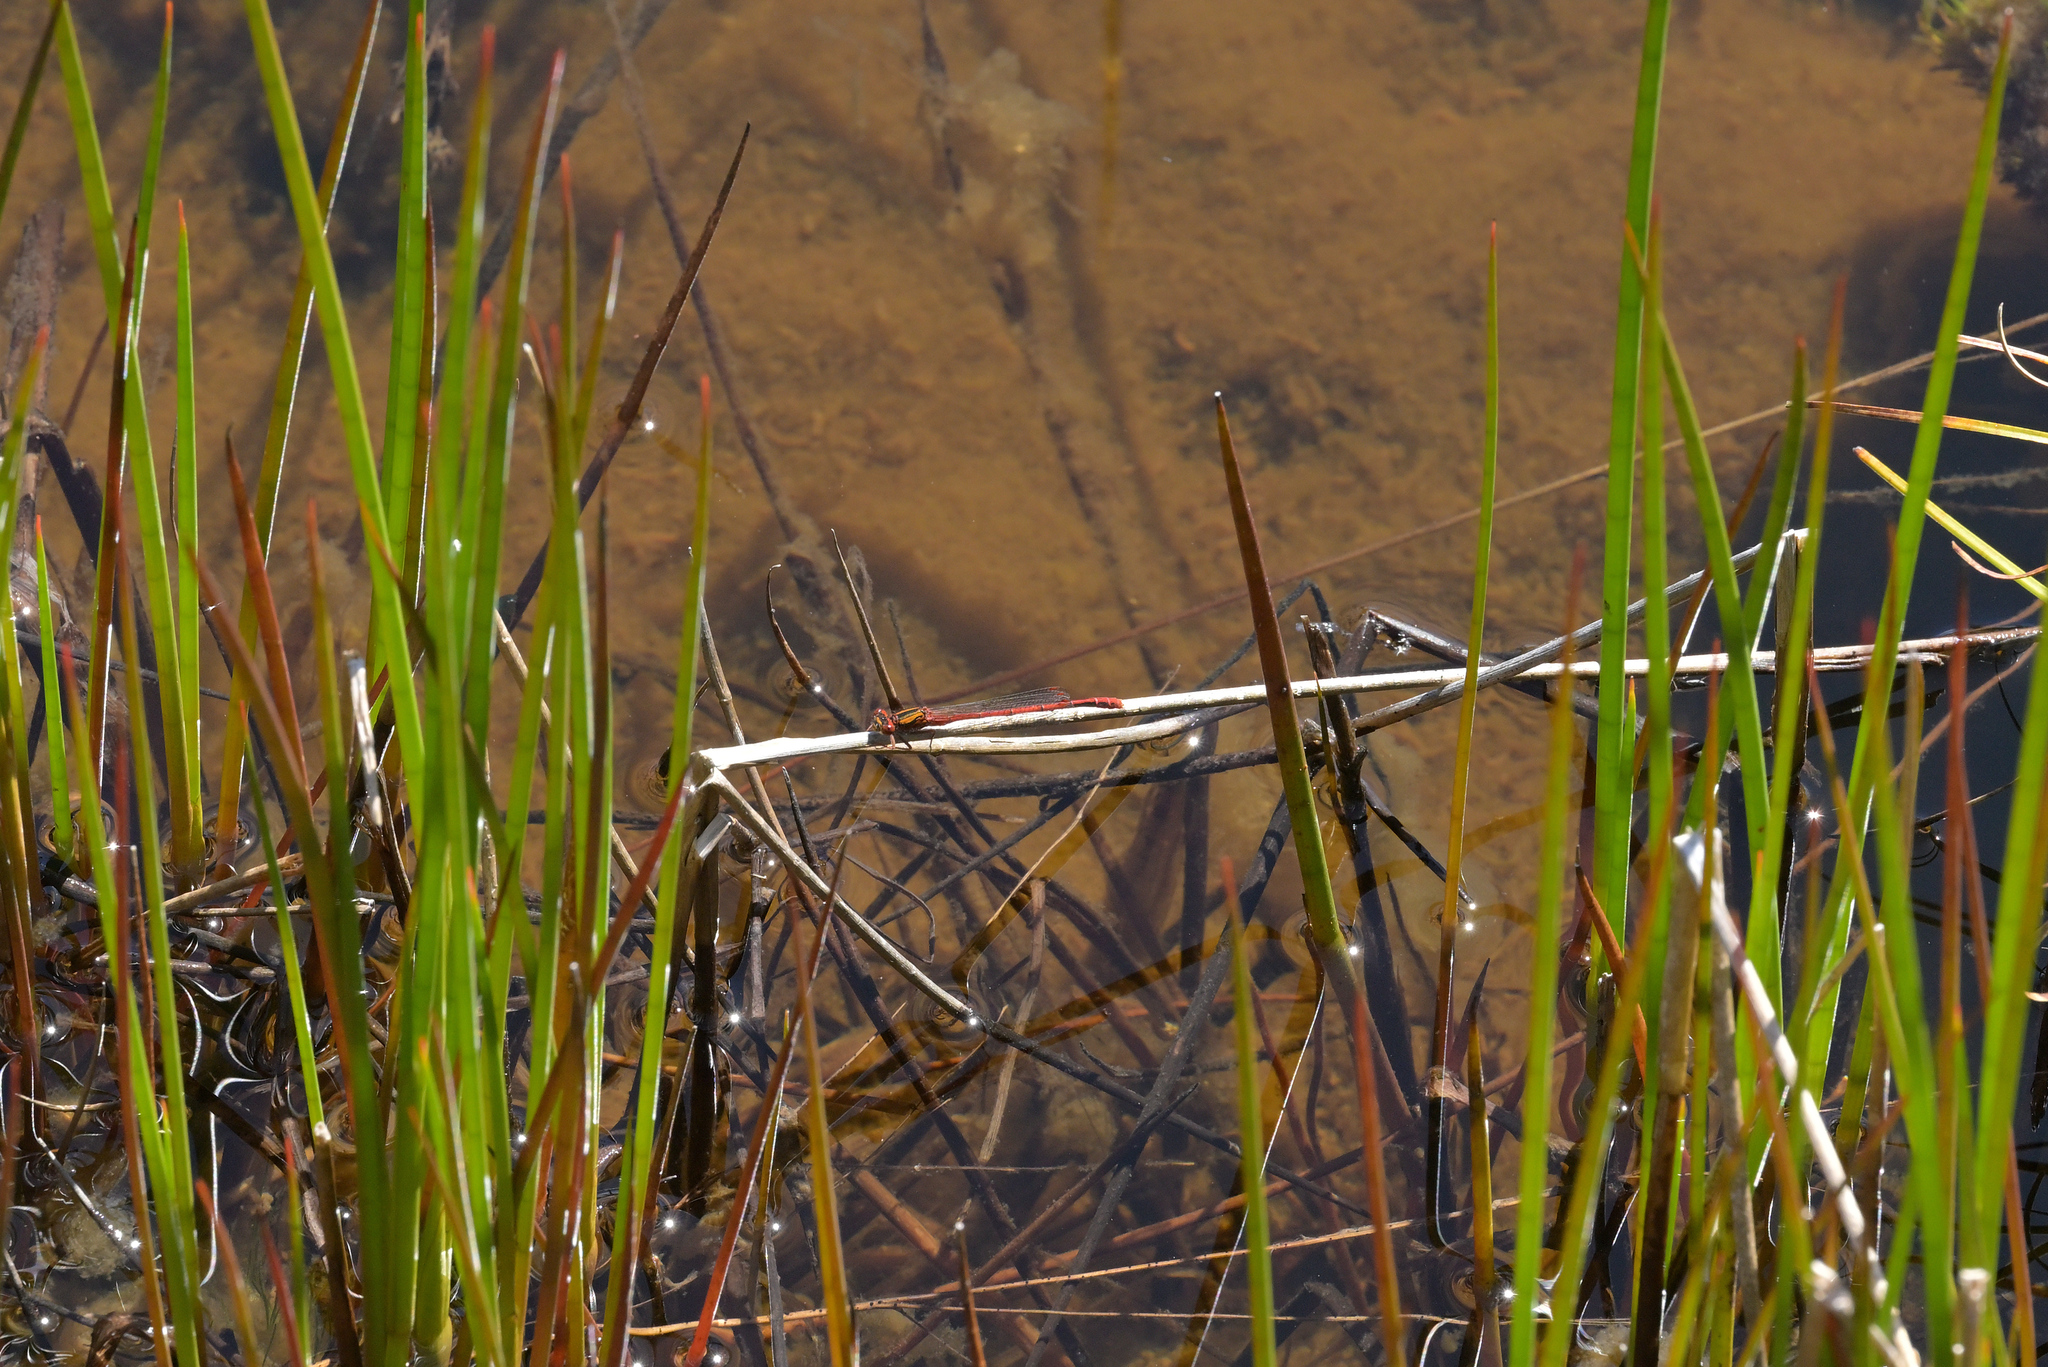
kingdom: Animalia
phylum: Arthropoda
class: Insecta
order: Odonata
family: Coenagrionidae
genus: Xanthocnemis
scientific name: Xanthocnemis zealandica
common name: Common redcoat damselfly
